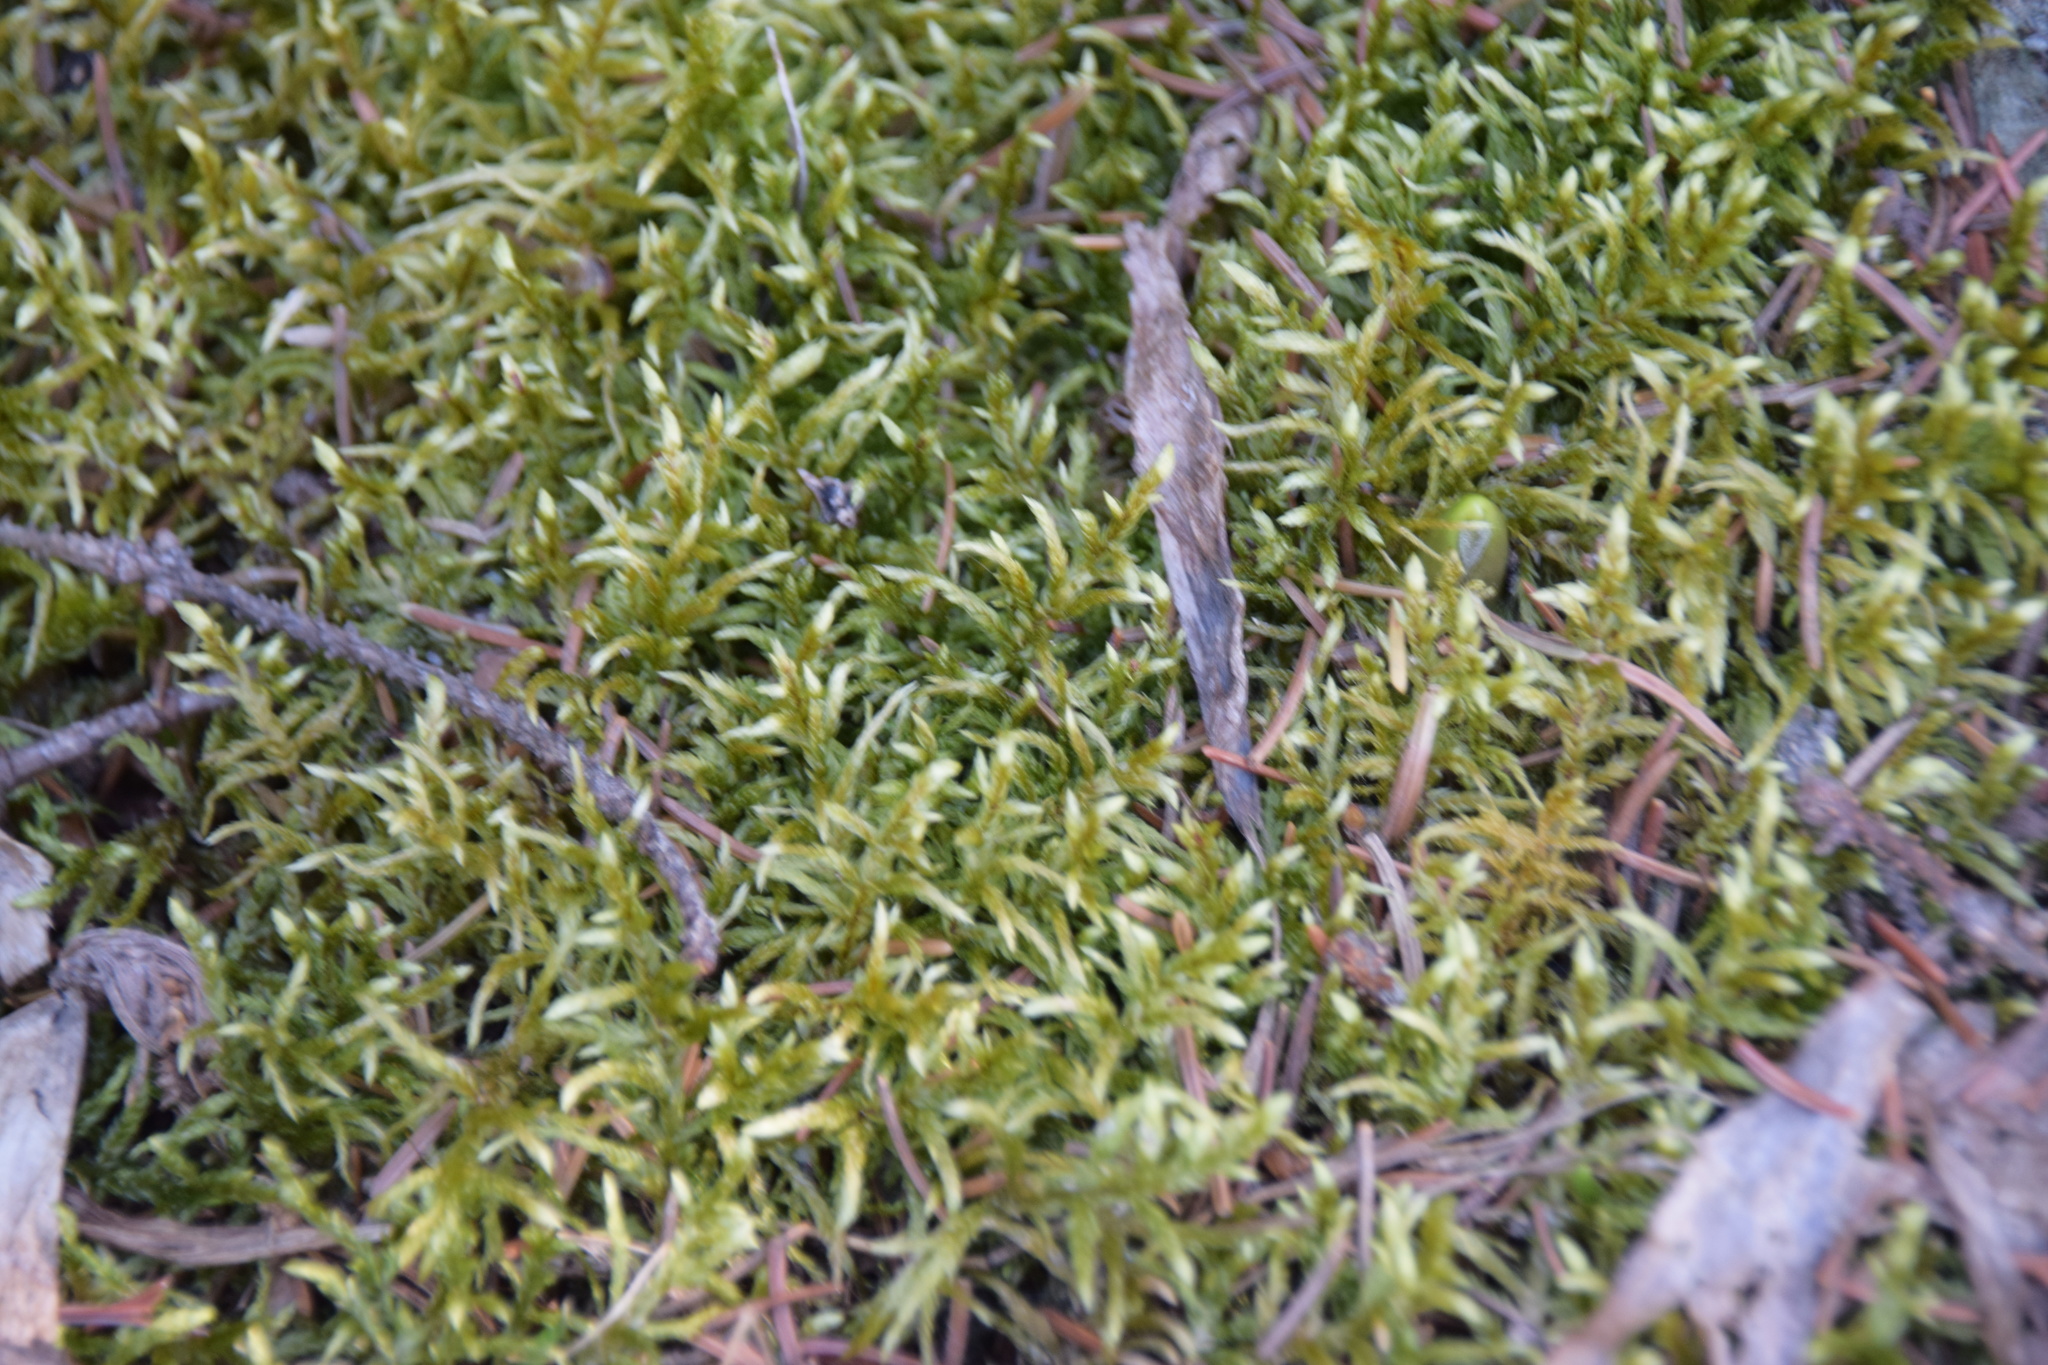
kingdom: Plantae
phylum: Bryophyta
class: Bryopsida
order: Hypnales
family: Hylocomiaceae
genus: Pleurozium
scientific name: Pleurozium schreberi
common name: Red-stemmed feather moss
